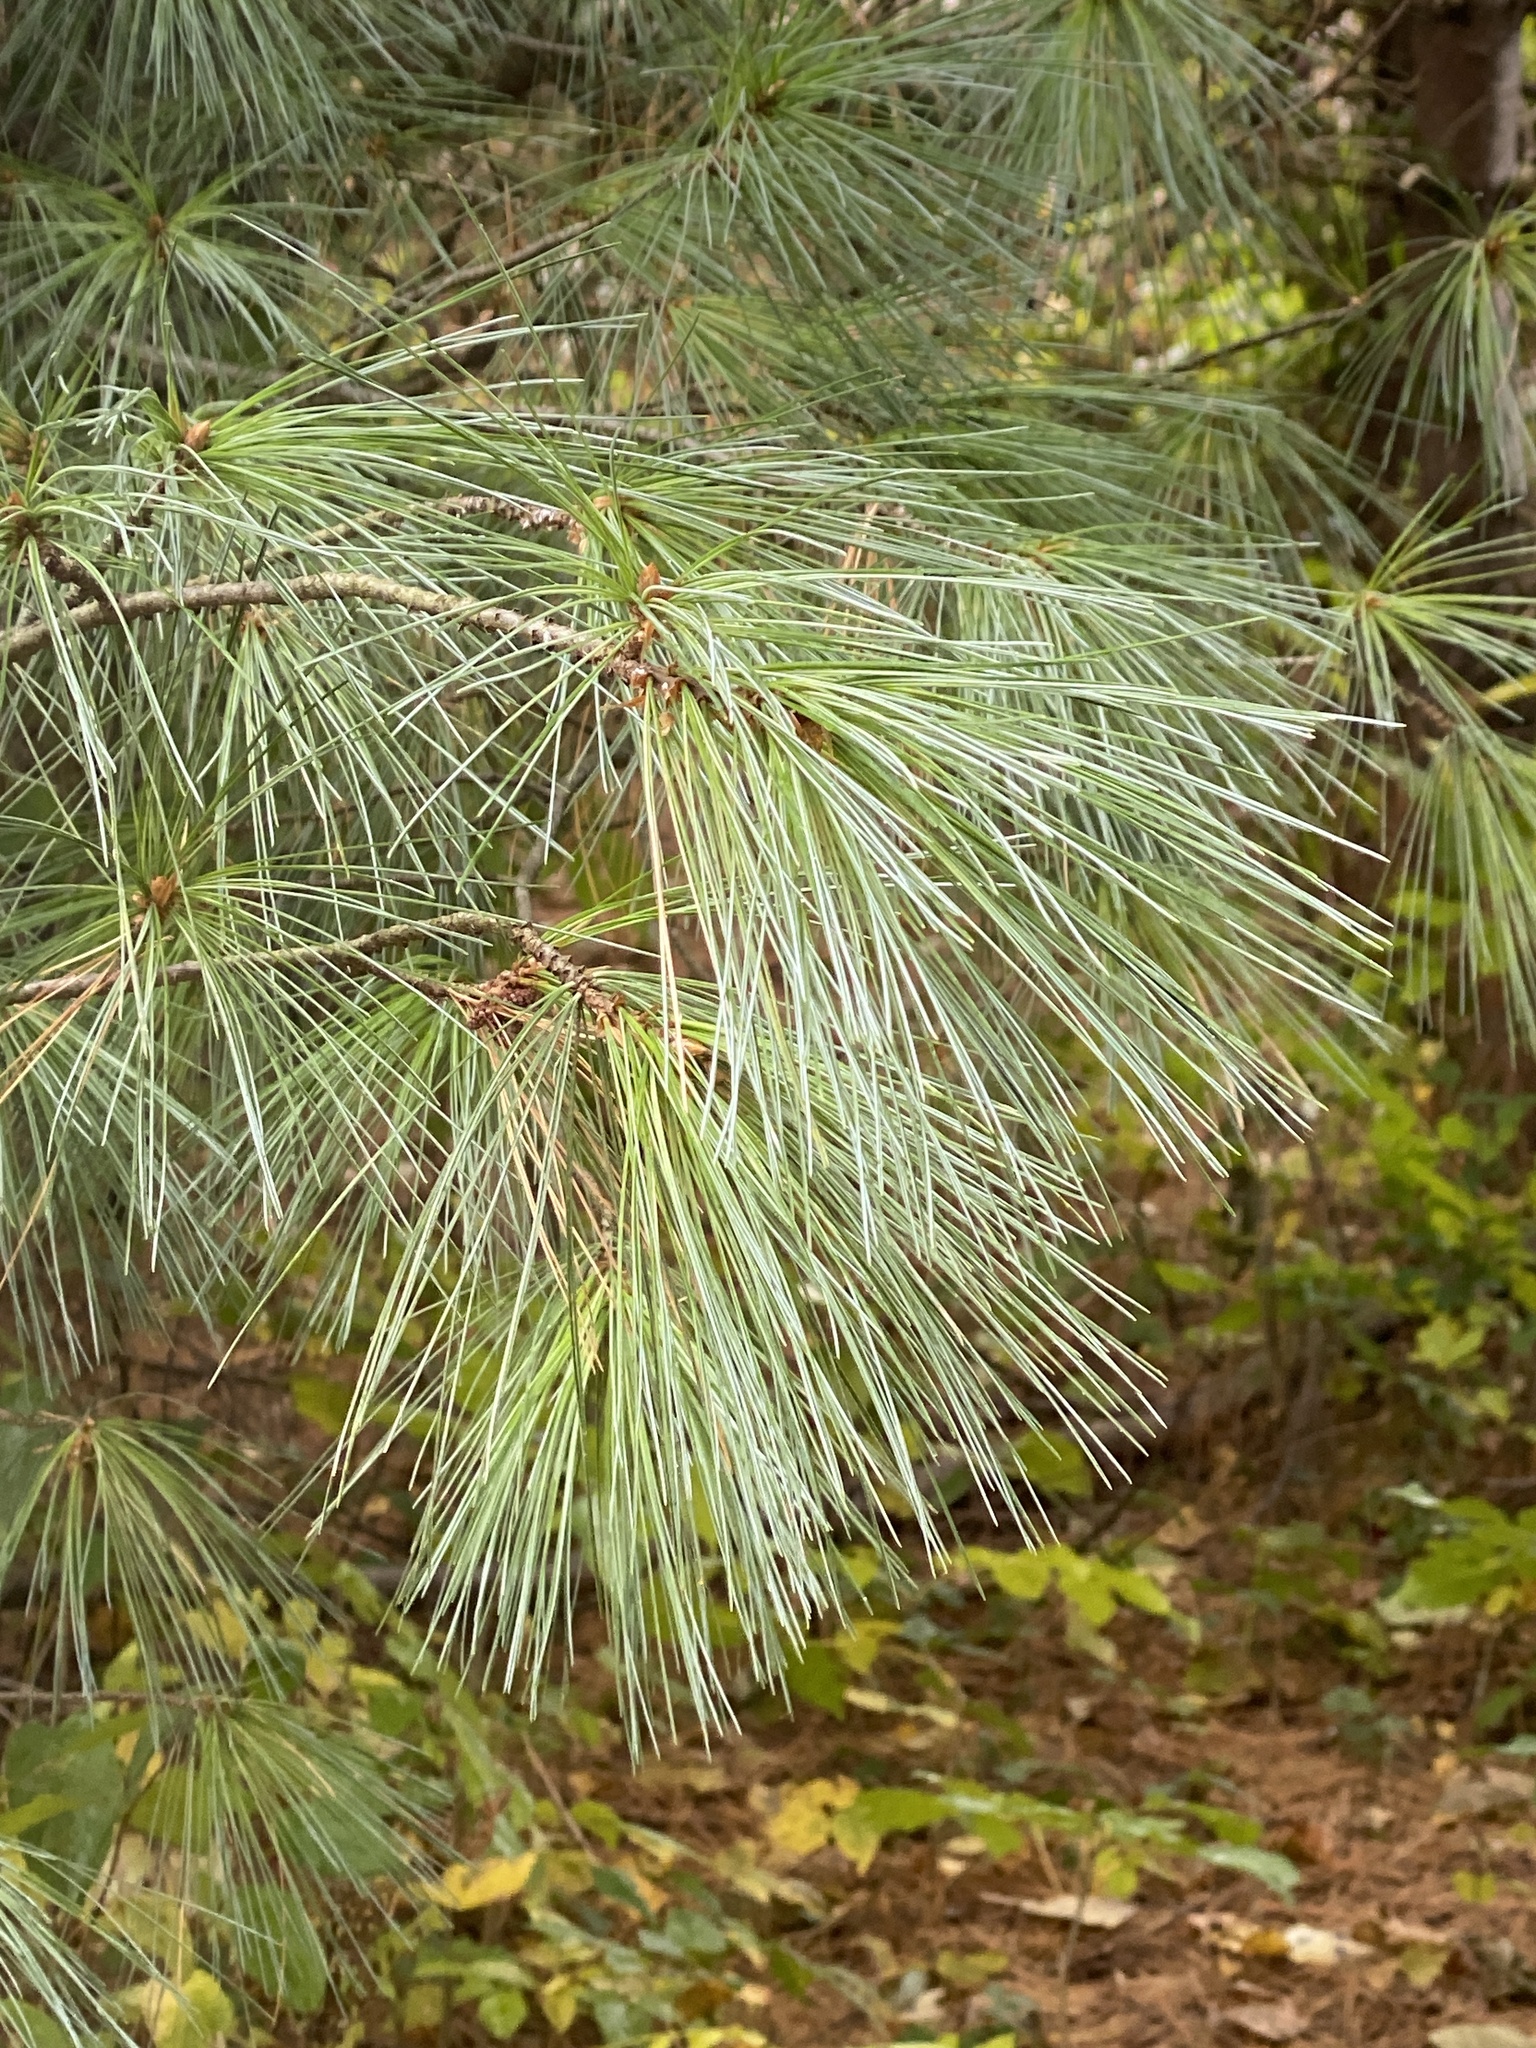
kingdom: Plantae
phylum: Tracheophyta
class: Pinopsida
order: Pinales
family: Pinaceae
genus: Pinus
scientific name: Pinus strobus
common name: Weymouth pine
